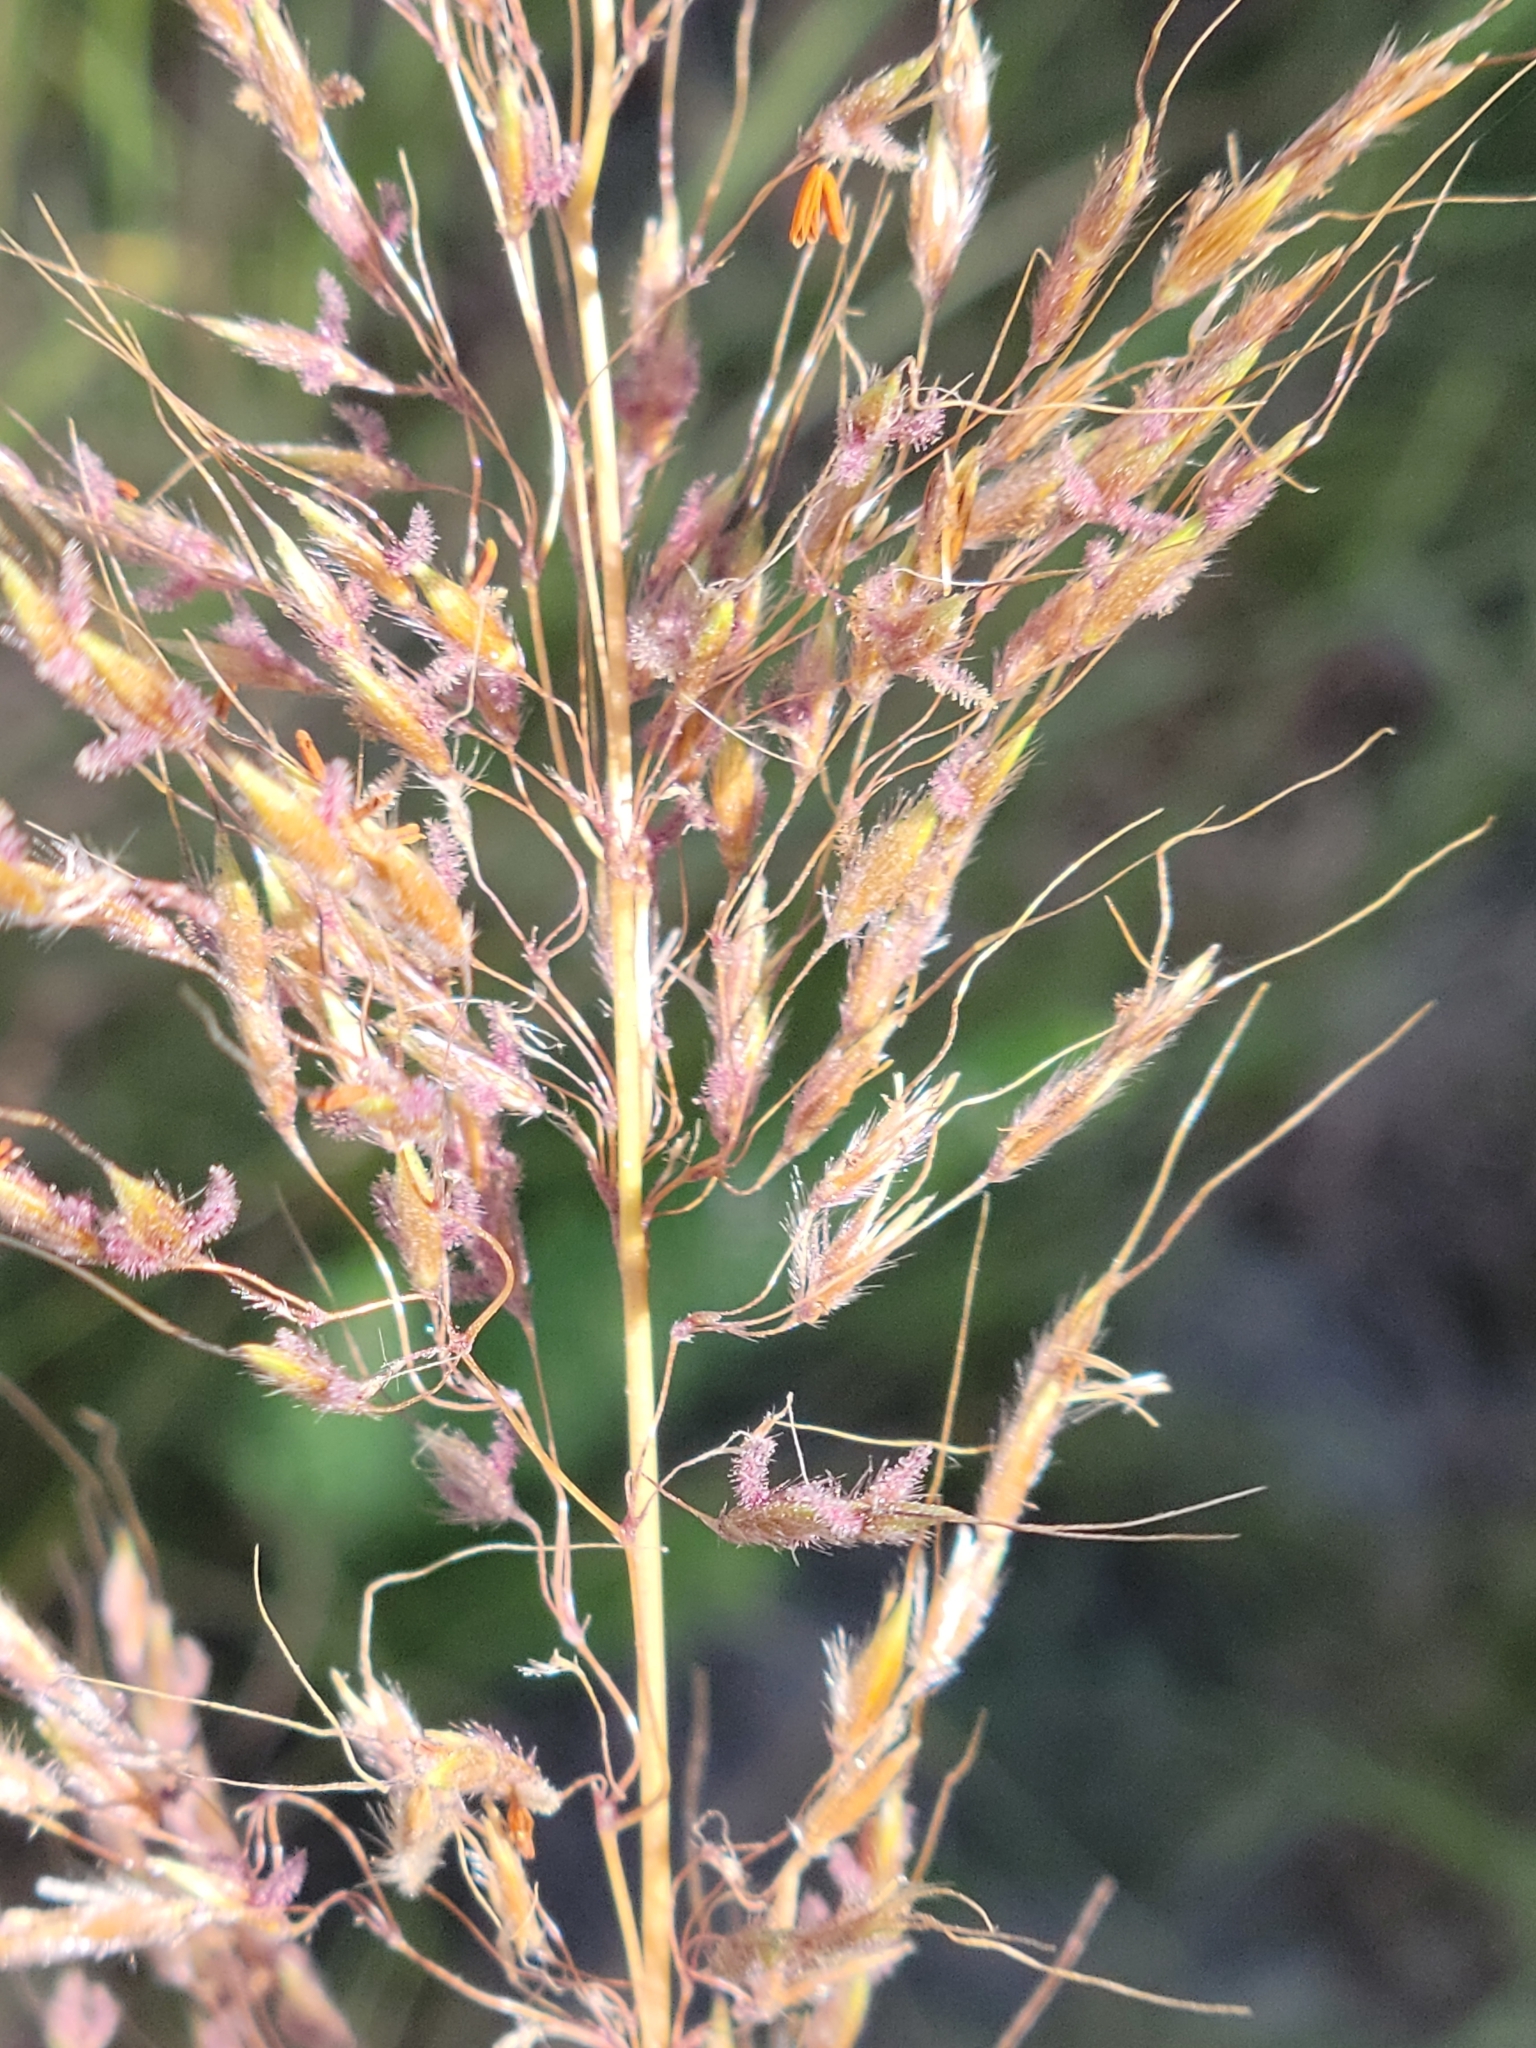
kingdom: Plantae
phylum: Tracheophyta
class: Liliopsida
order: Poales
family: Poaceae
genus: Sorghastrum
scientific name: Sorghastrum nutans
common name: Indian grass
